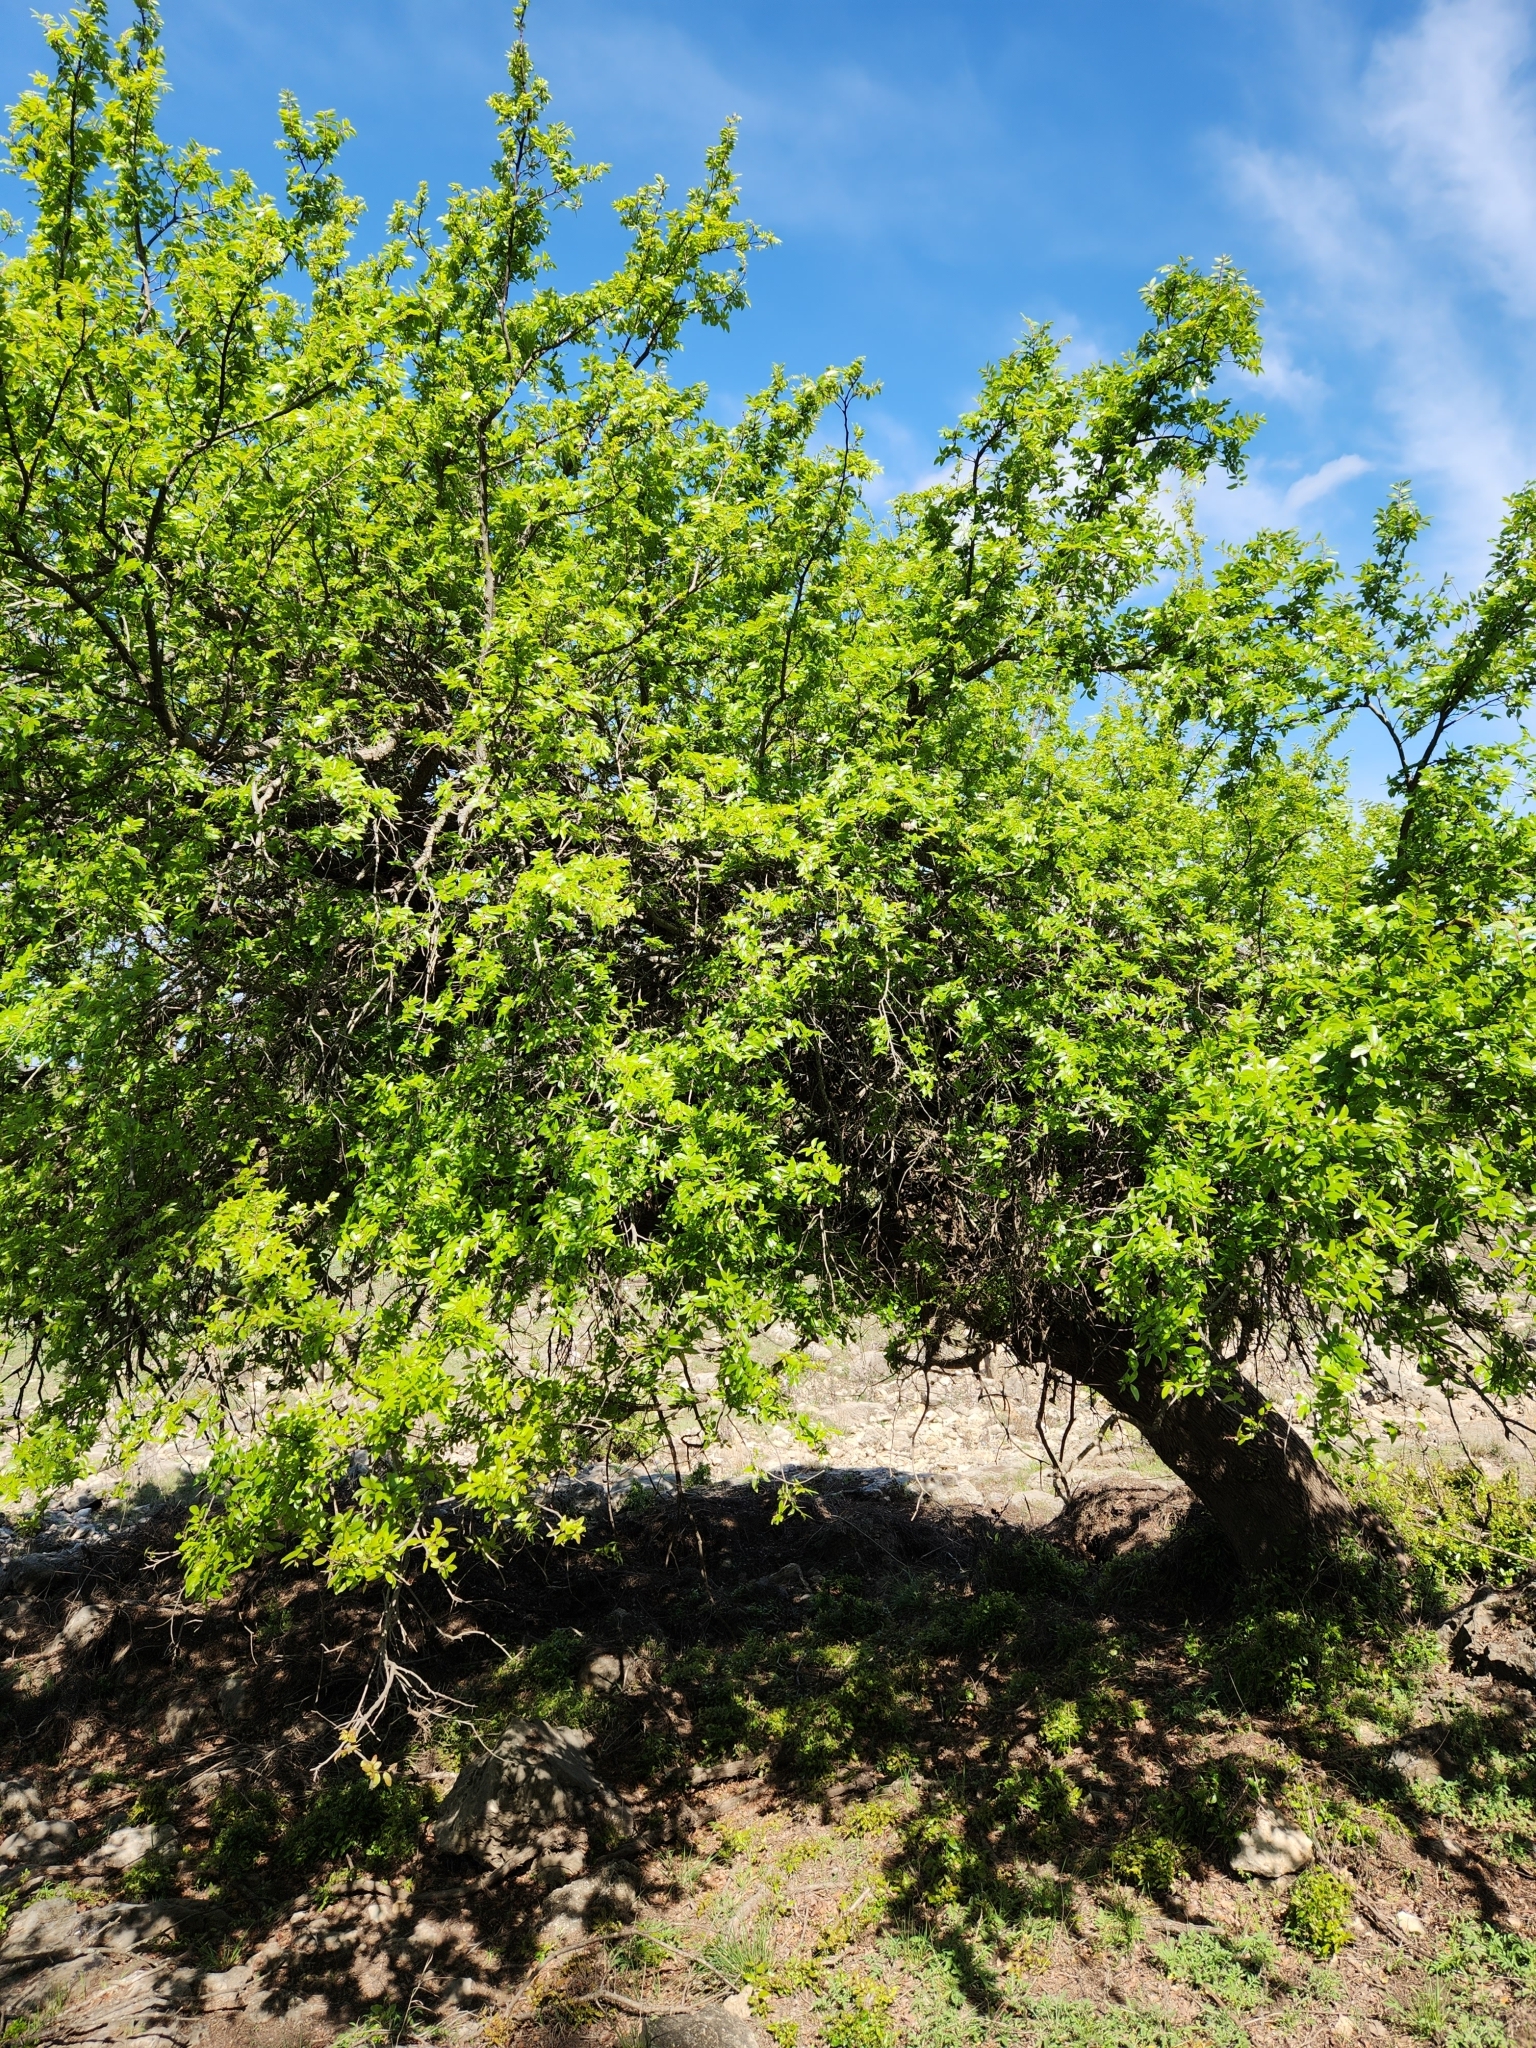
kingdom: Plantae
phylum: Tracheophyta
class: Magnoliopsida
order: Rosales
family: Ulmaceae
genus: Ulmus
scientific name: Ulmus crassifolia
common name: Basket elm
